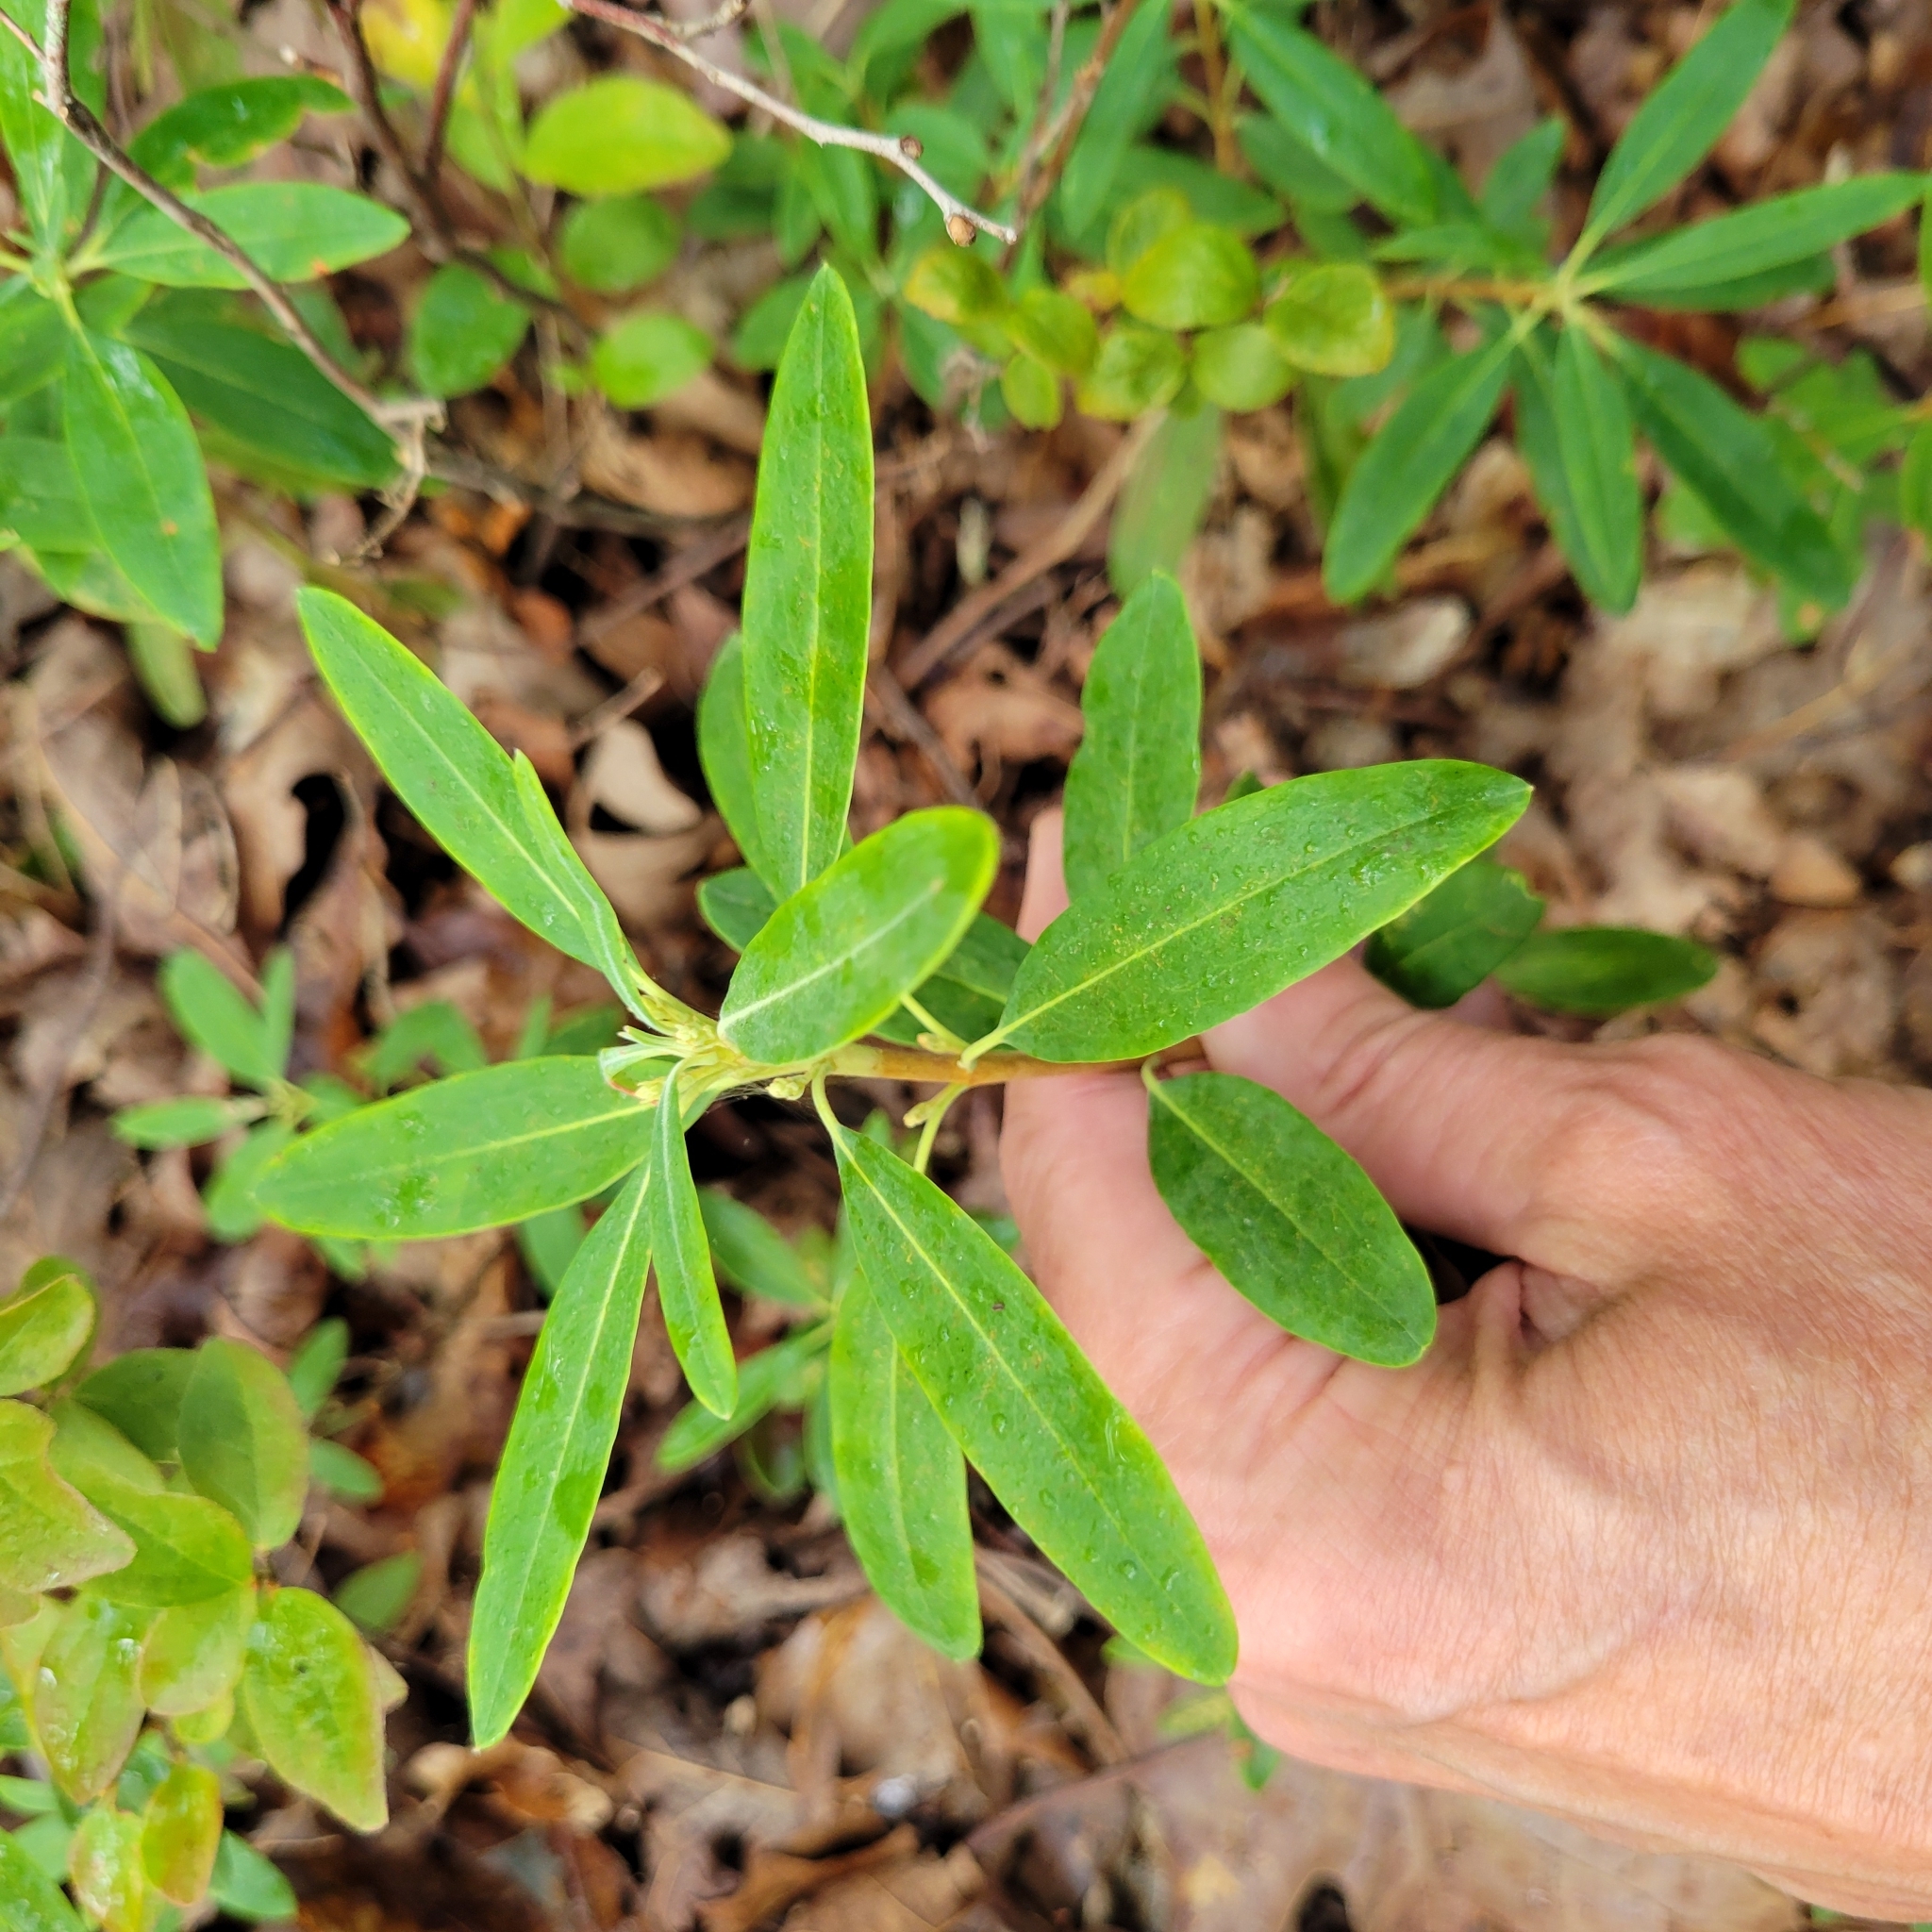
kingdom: Plantae
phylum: Tracheophyta
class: Magnoliopsida
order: Ericales
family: Ericaceae
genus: Kalmia
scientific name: Kalmia angustifolia
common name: Sheep-laurel
